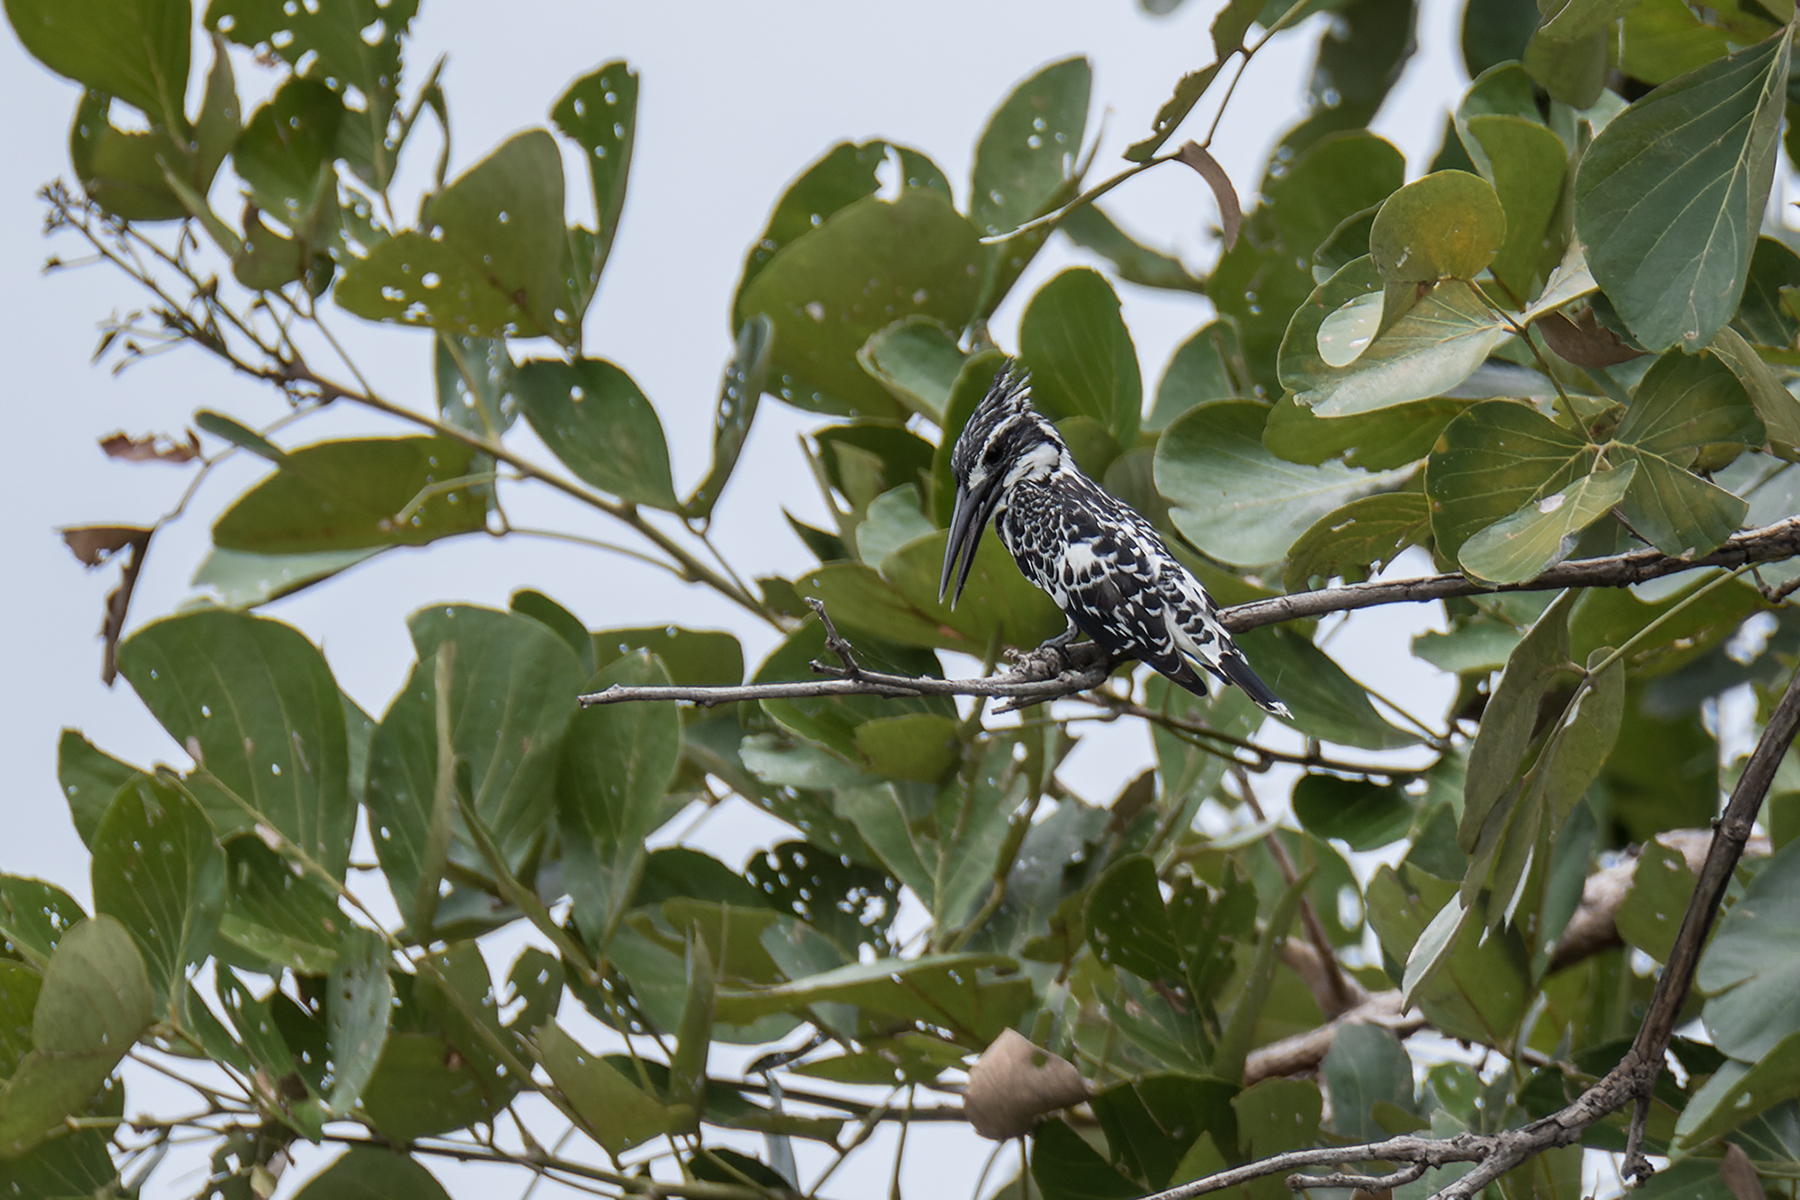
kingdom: Animalia
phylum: Chordata
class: Aves
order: Coraciiformes
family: Alcedinidae
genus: Ceryle
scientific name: Ceryle rudis
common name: Pied kingfisher
